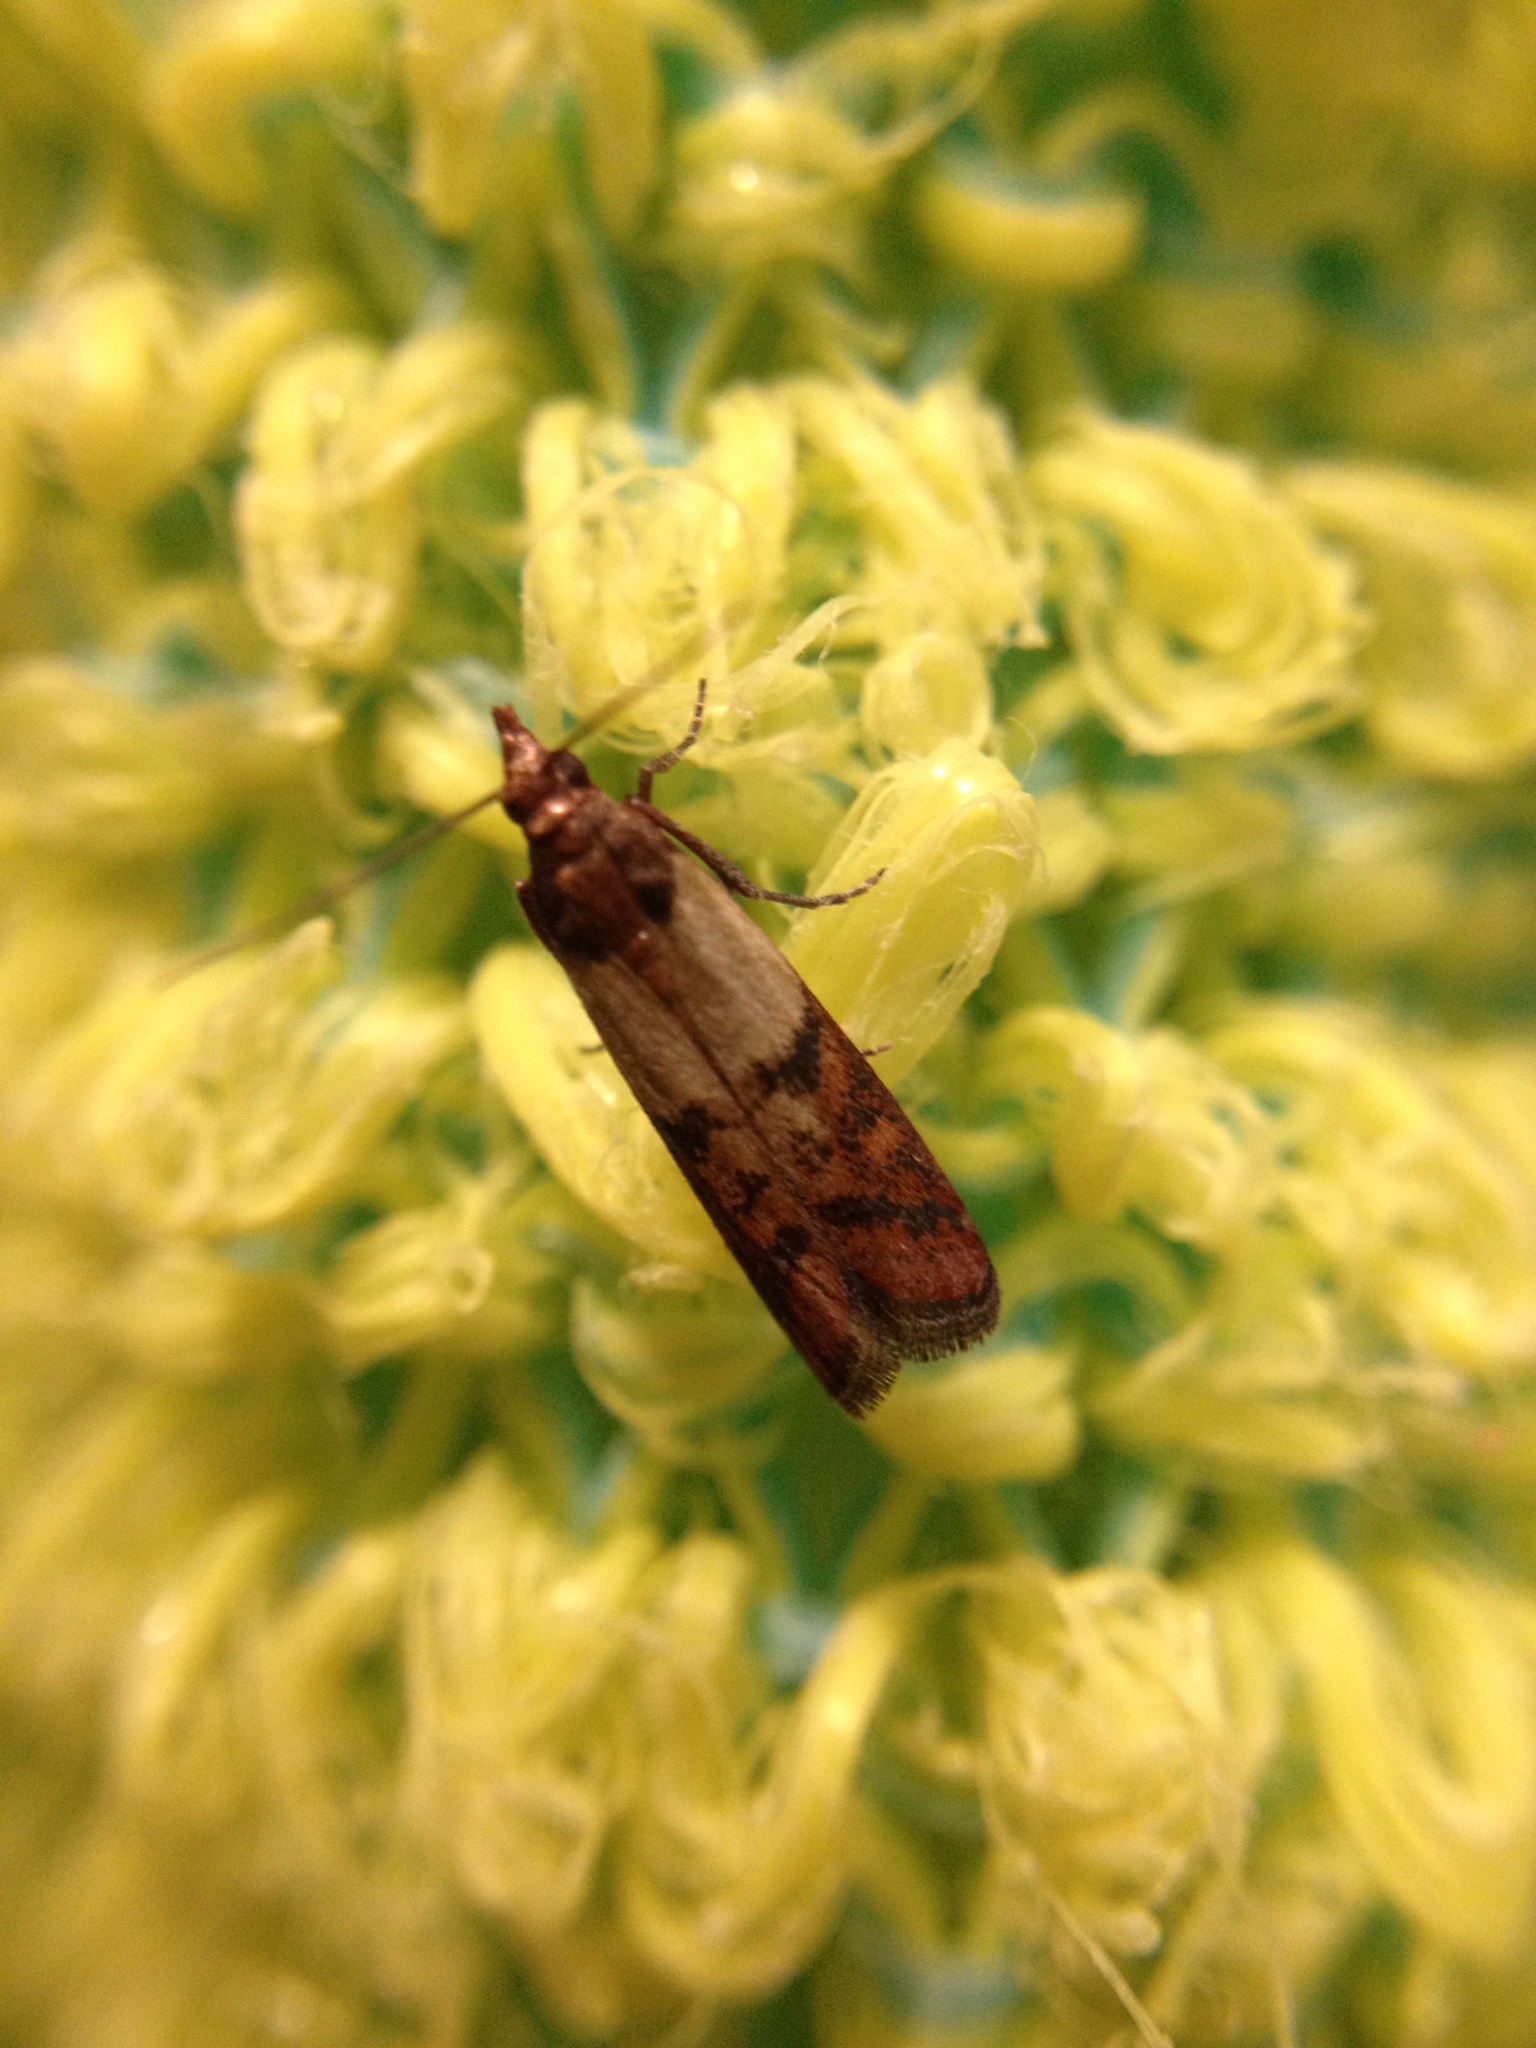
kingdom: Animalia
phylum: Arthropoda
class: Insecta
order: Lepidoptera
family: Pyralidae
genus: Plodia
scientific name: Plodia interpunctella
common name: Indian meal moth
